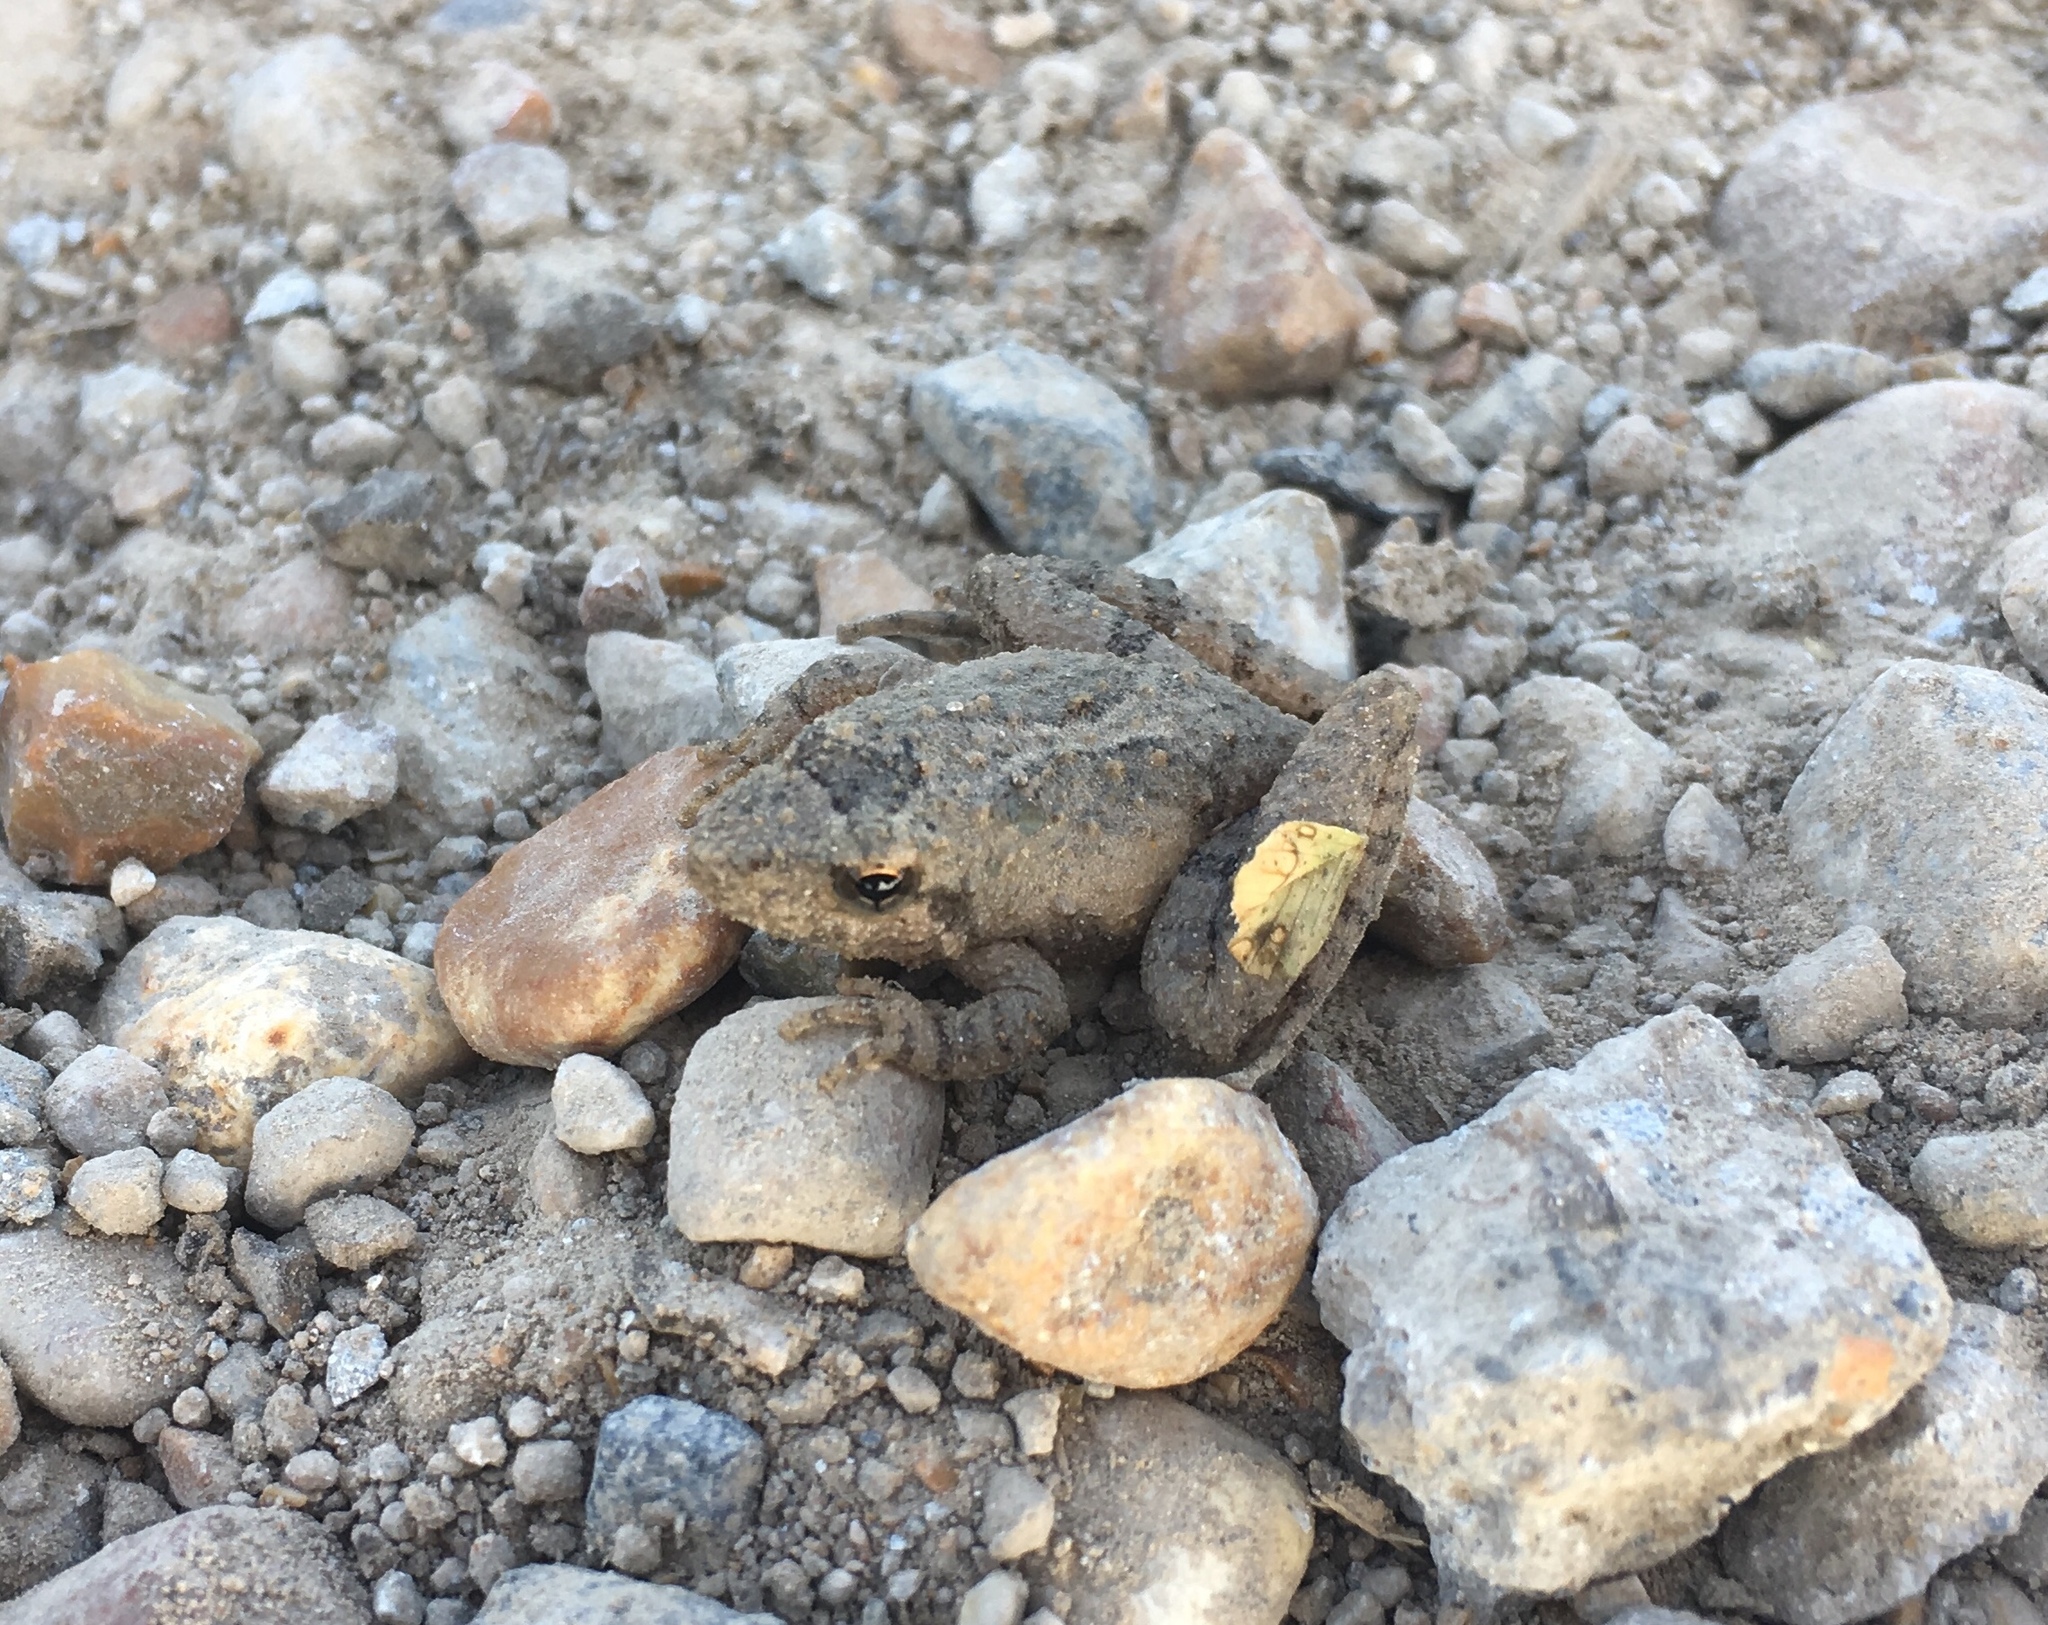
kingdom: Animalia
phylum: Chordata
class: Amphibia
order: Anura
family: Hylidae
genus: Acris
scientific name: Acris blanchardi
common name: Blanchard's cricket frog
